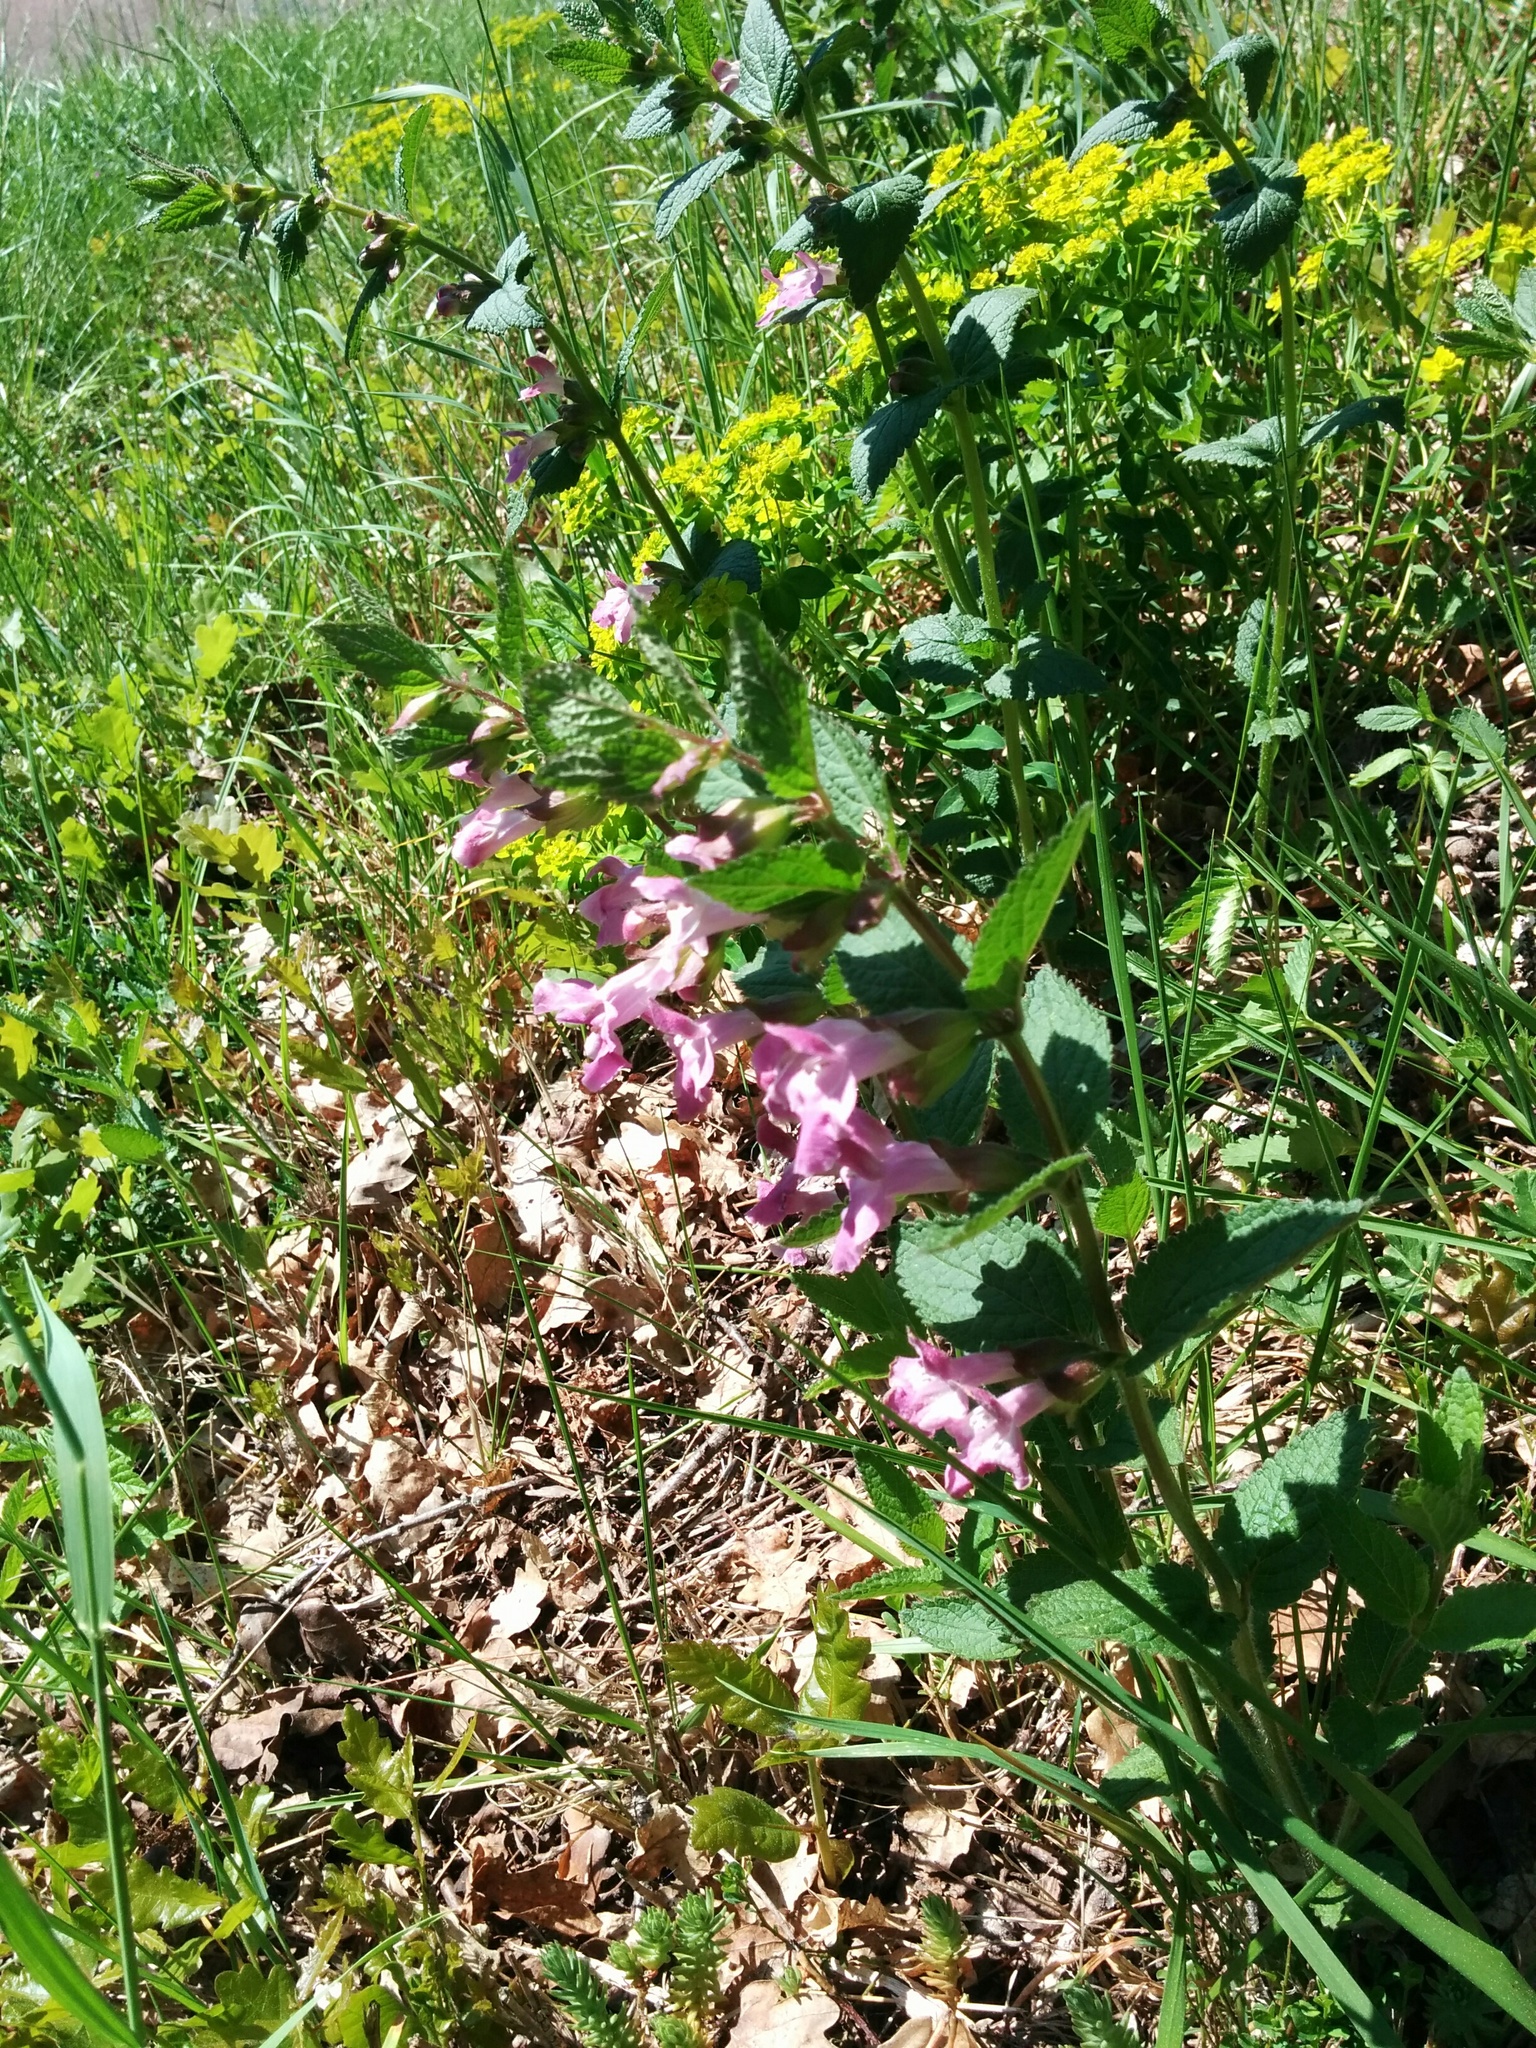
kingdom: Plantae
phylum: Tracheophyta
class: Magnoliopsida
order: Lamiales
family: Lamiaceae
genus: Melittis
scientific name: Melittis melissophyllum
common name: Bastard balm
